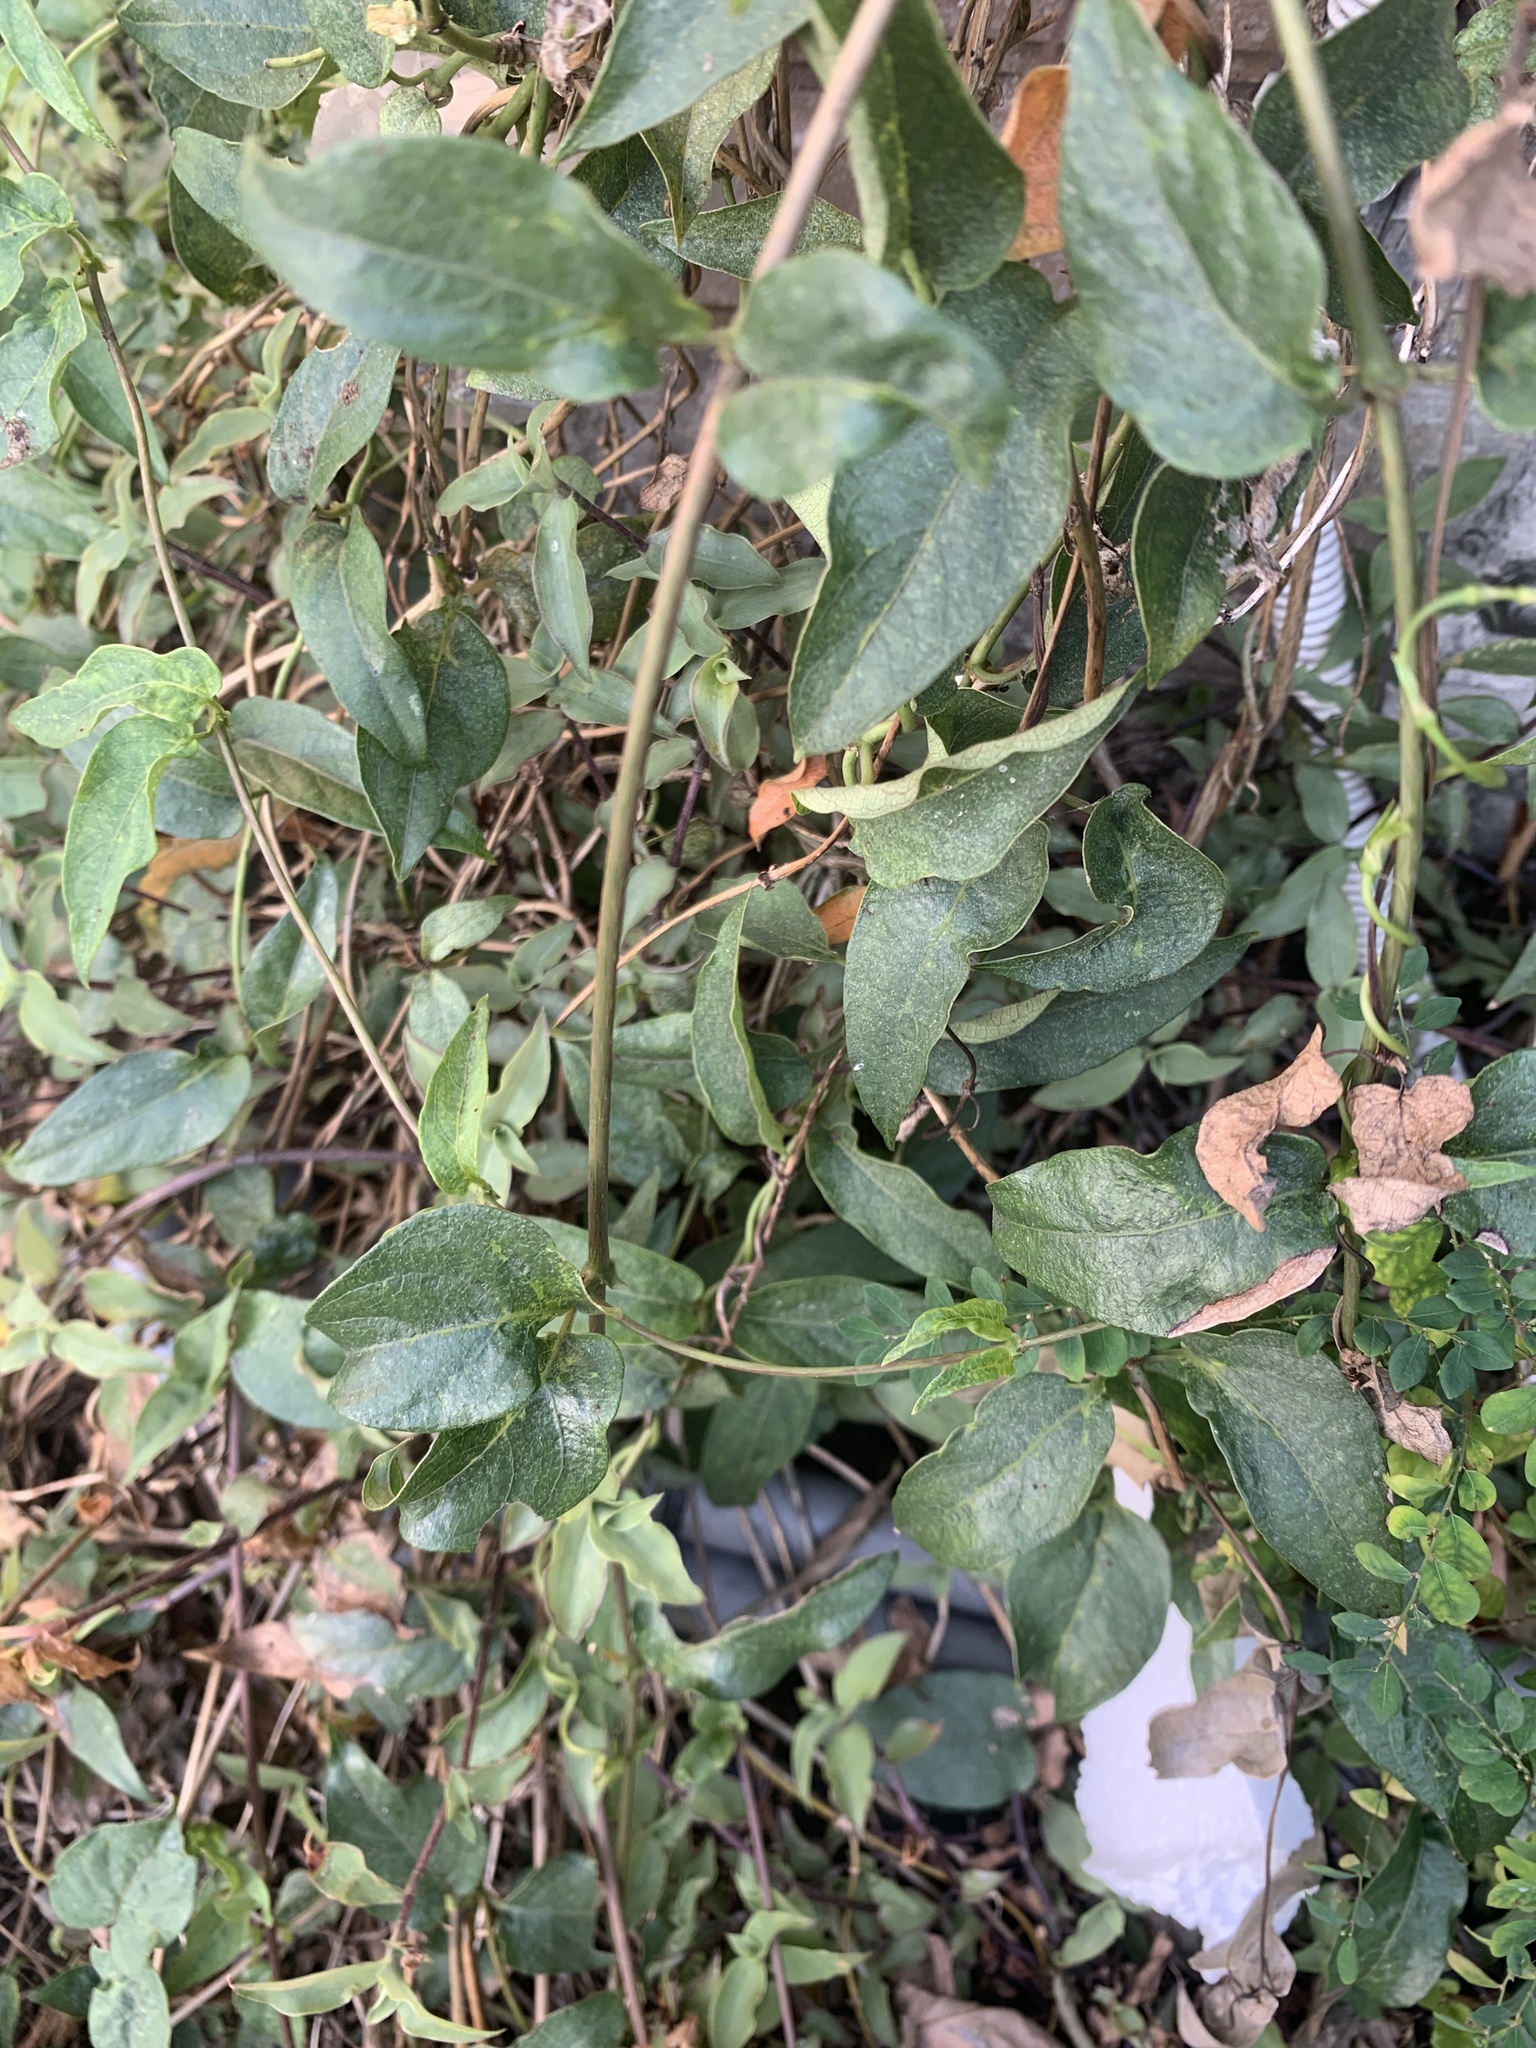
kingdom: Plantae
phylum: Tracheophyta
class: Magnoliopsida
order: Gentianales
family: Rubiaceae
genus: Paederia
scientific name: Paederia foetida
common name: Stinkvine
